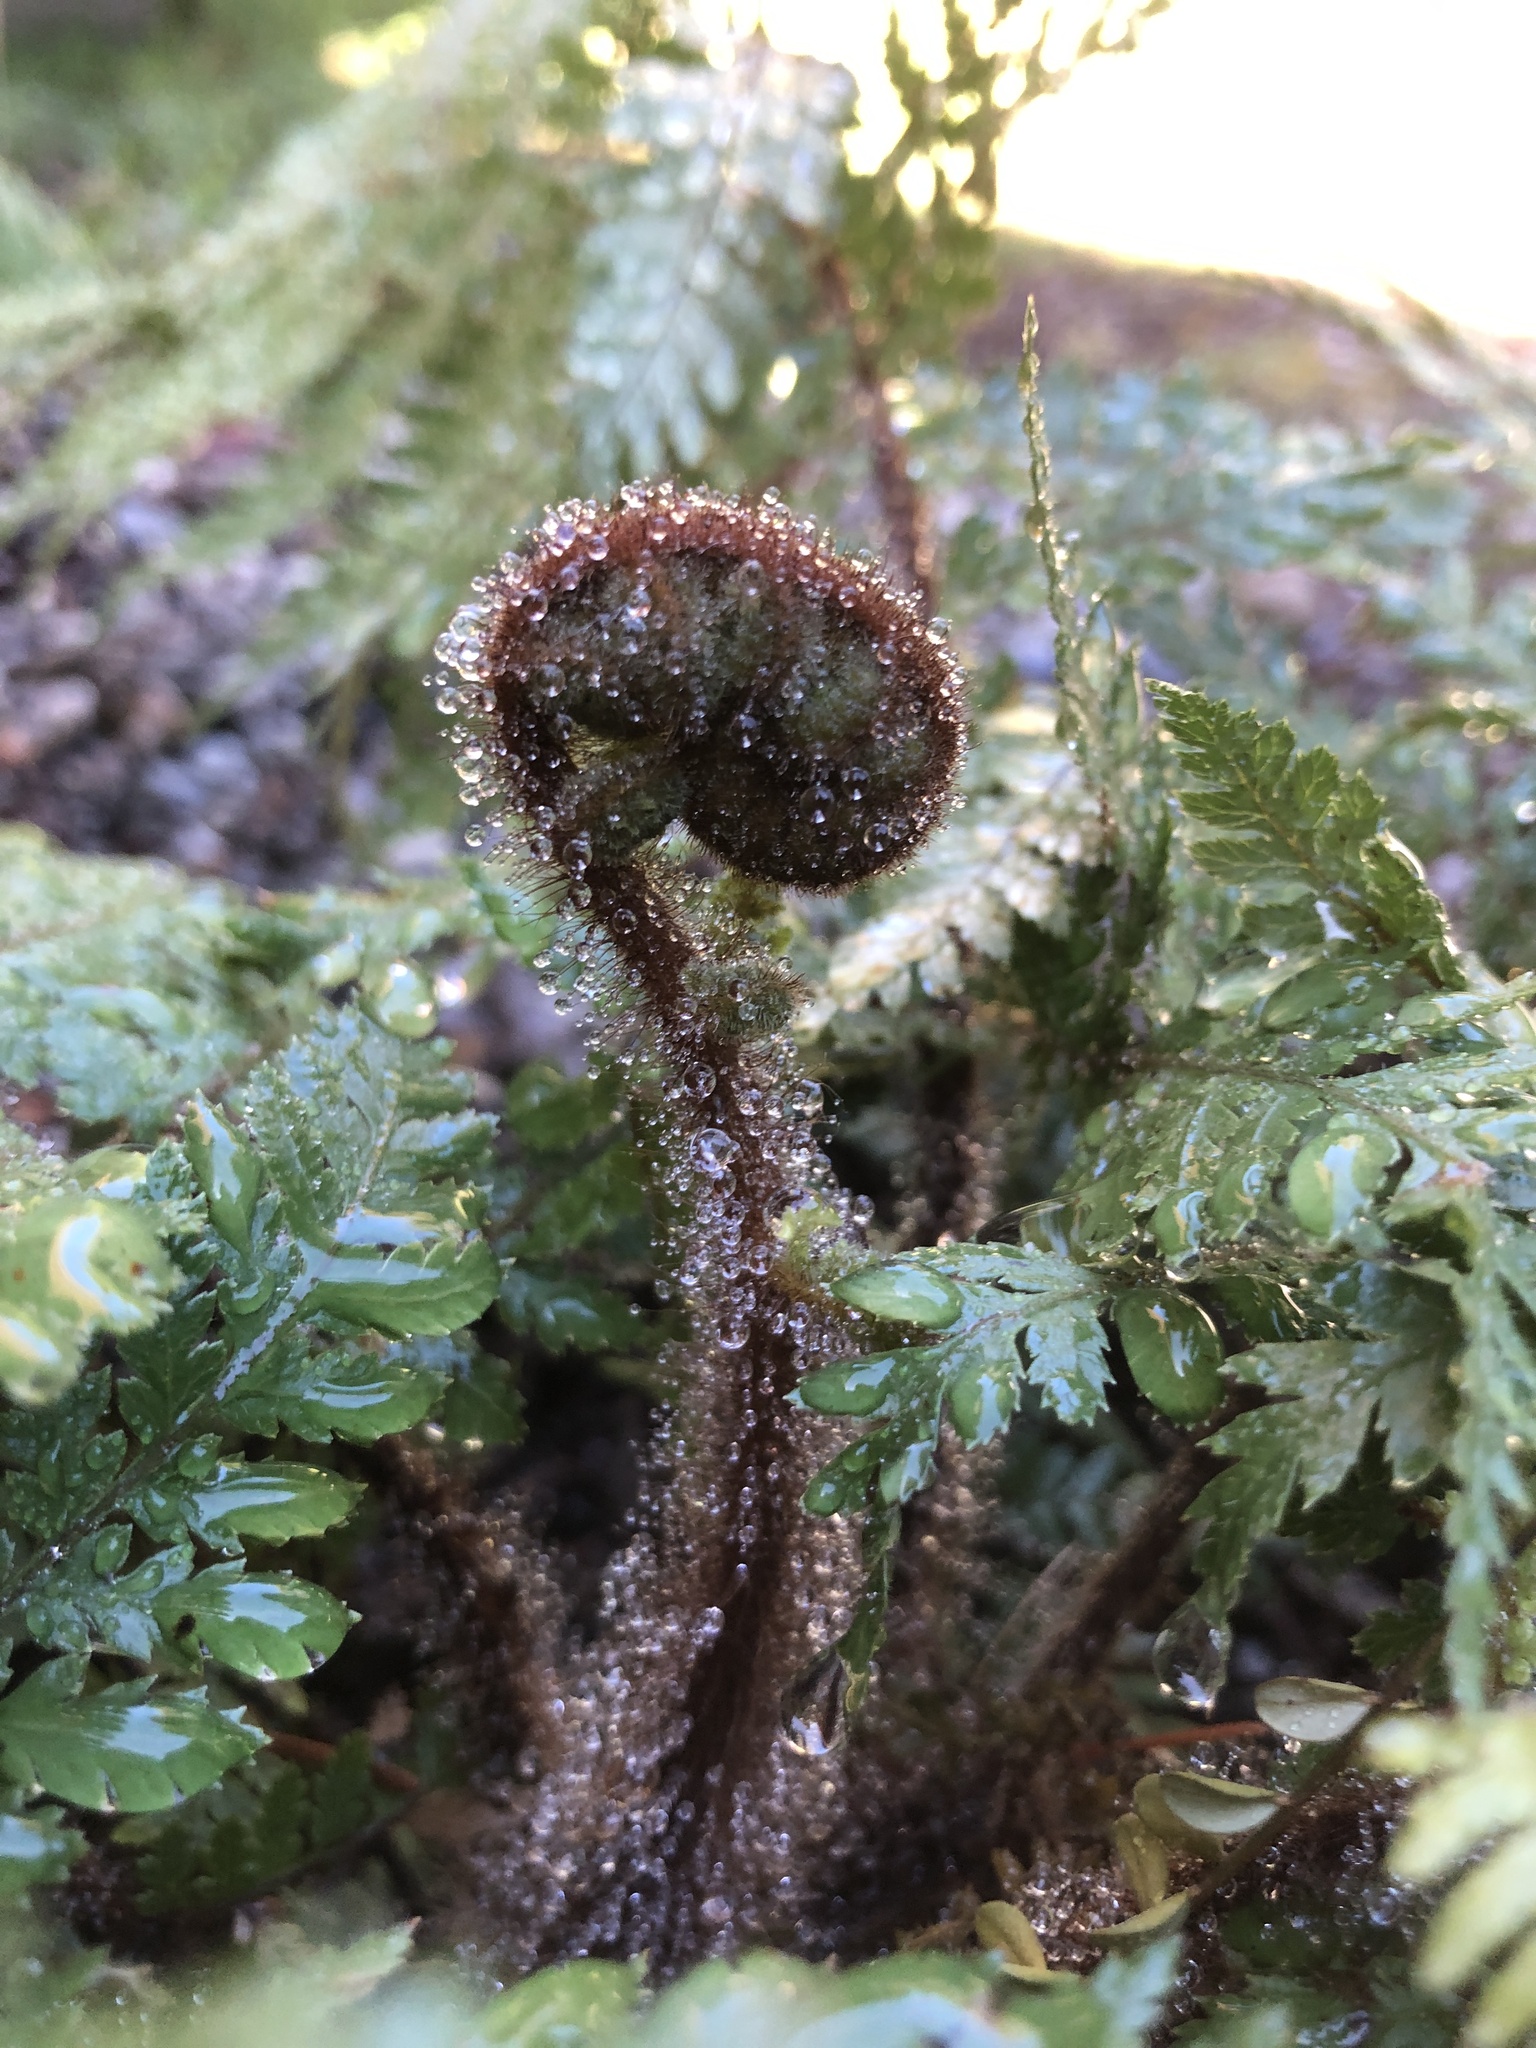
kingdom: Plantae
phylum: Tracheophyta
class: Polypodiopsida
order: Cyatheales
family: Dicksoniaceae
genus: Dicksonia
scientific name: Dicksonia squarrosa
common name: Hard treefern
